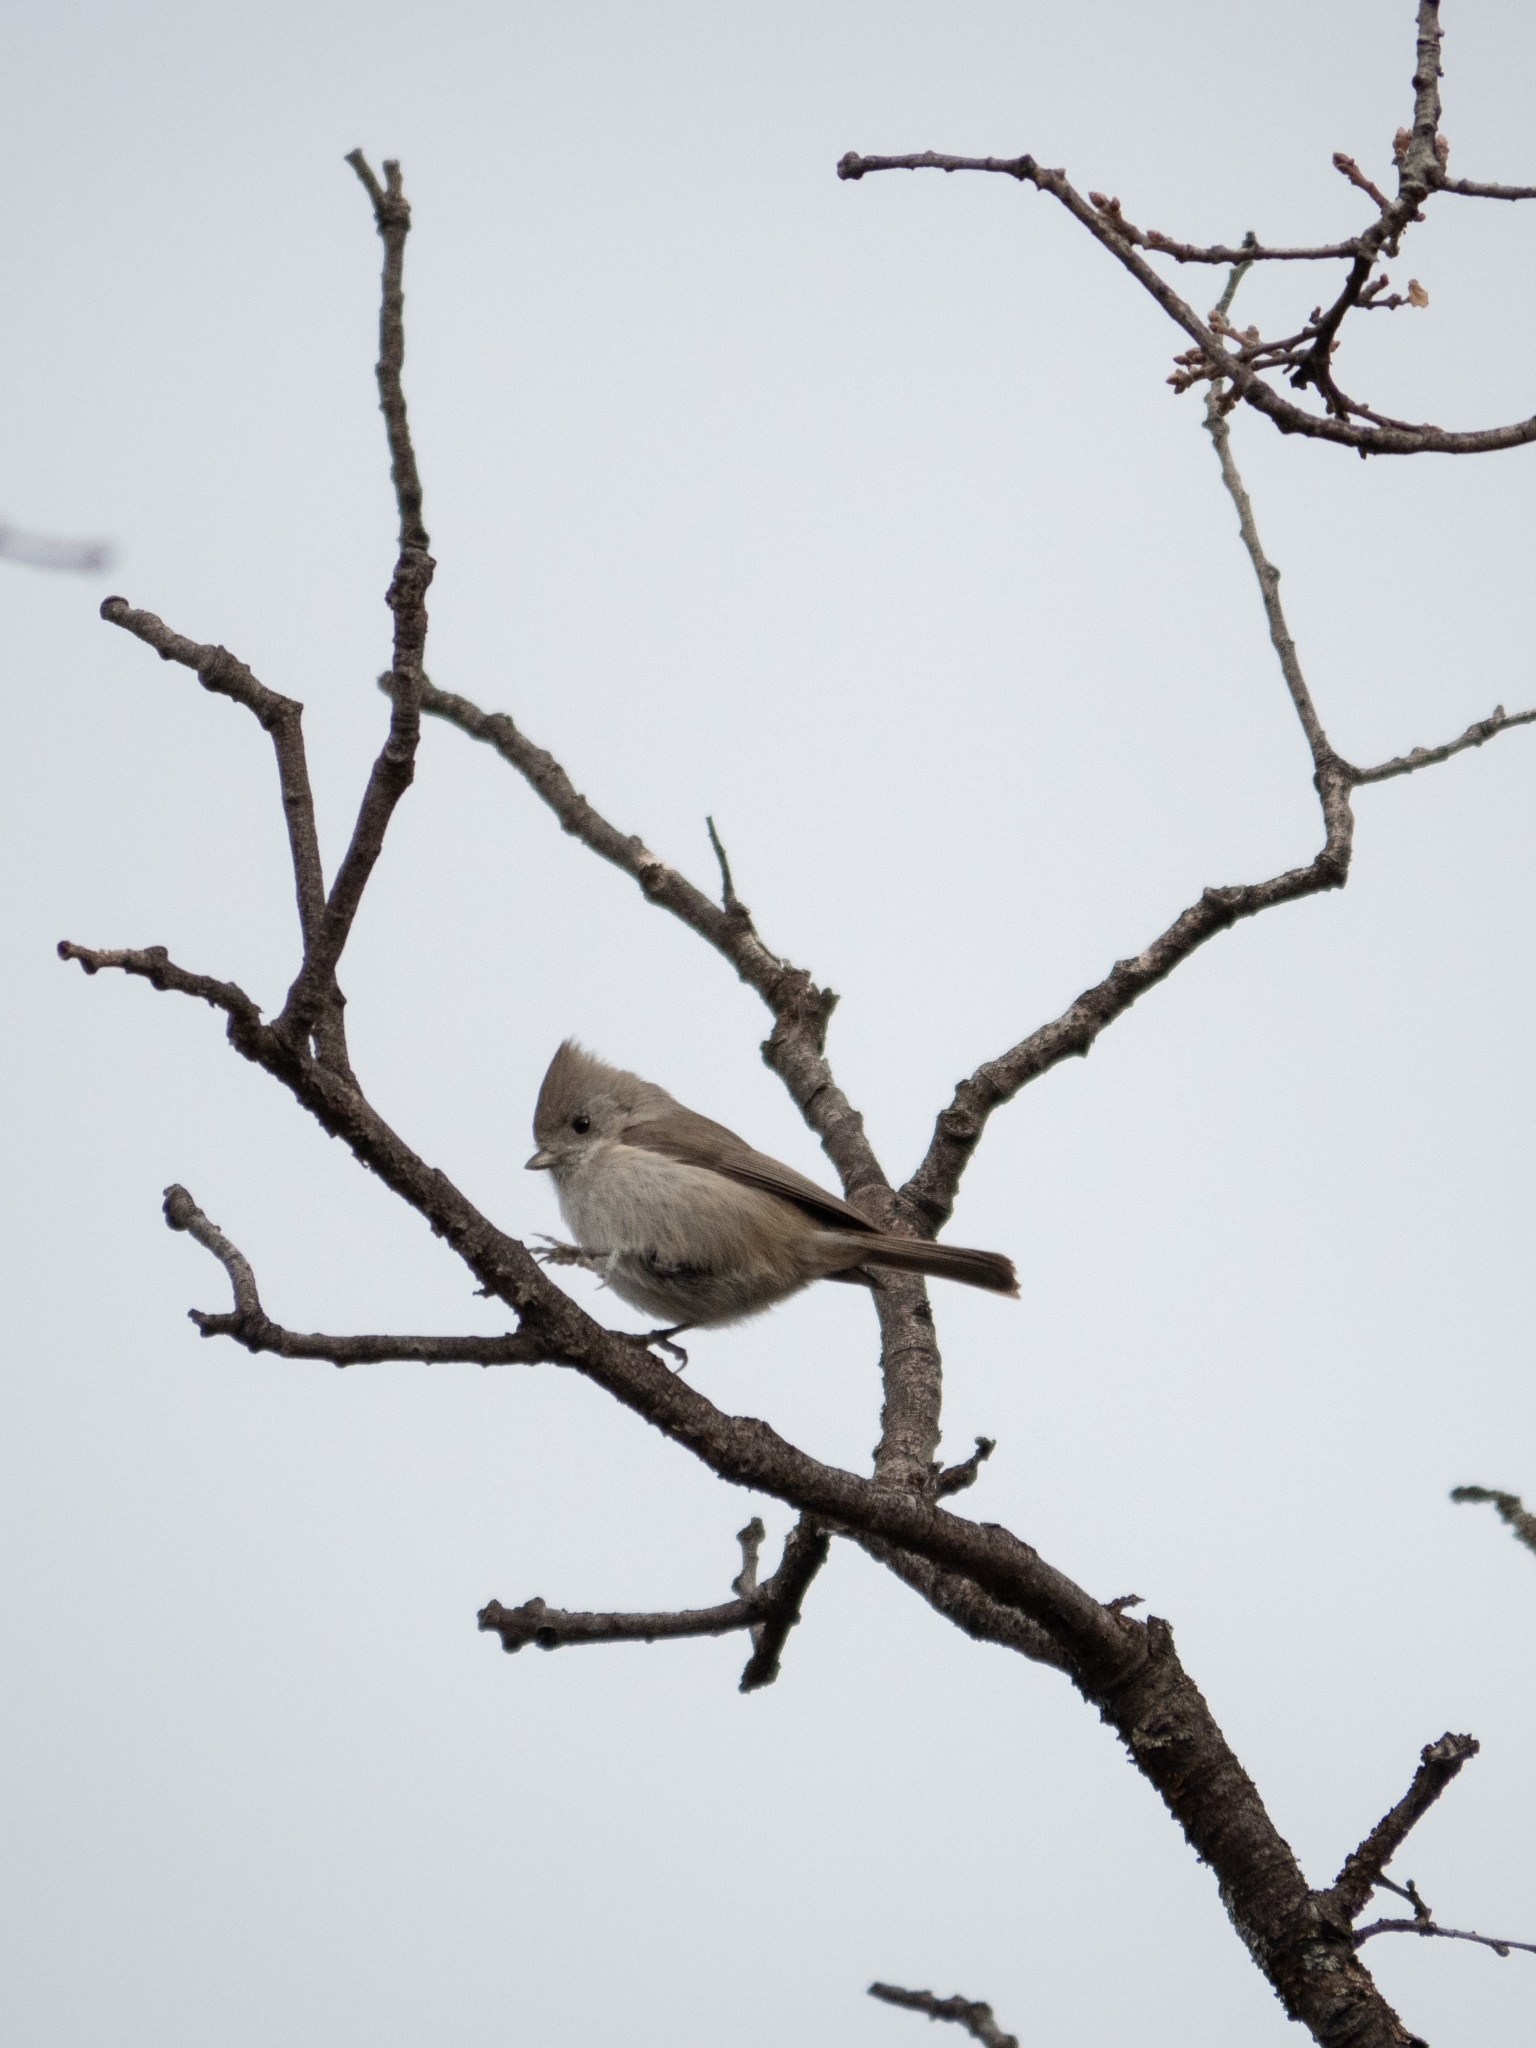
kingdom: Animalia
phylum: Chordata
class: Aves
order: Passeriformes
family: Paridae
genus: Baeolophus
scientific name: Baeolophus inornatus
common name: Oak titmouse
